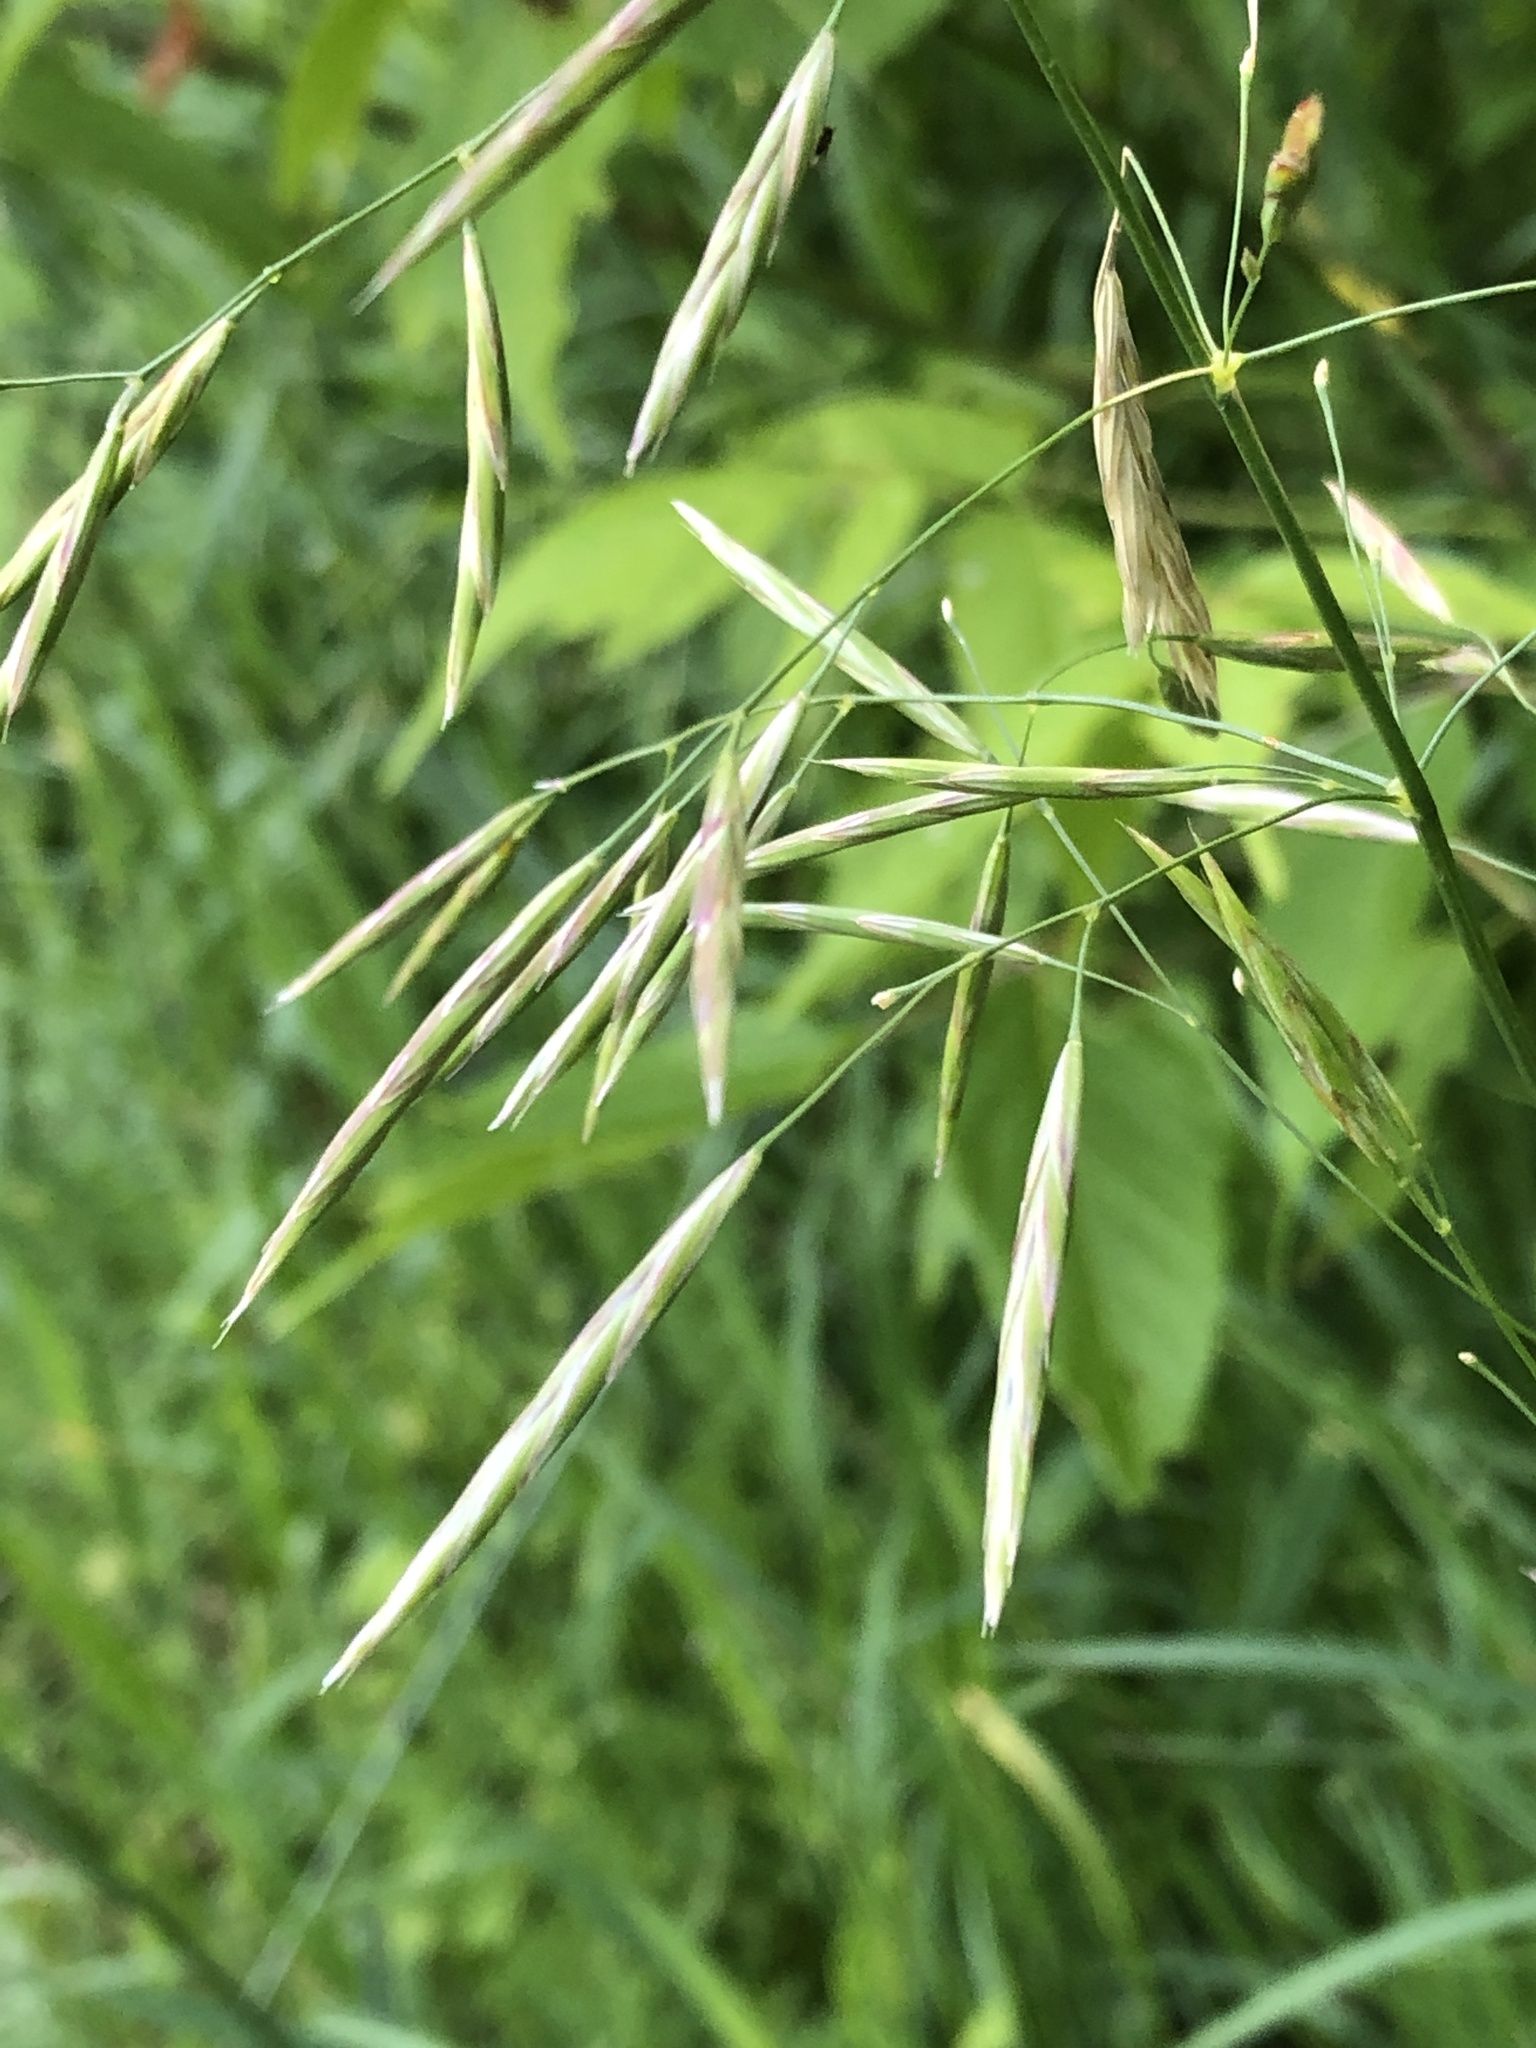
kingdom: Plantae
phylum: Tracheophyta
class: Liliopsida
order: Poales
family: Poaceae
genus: Bromus
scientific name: Bromus inermis
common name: Smooth brome
